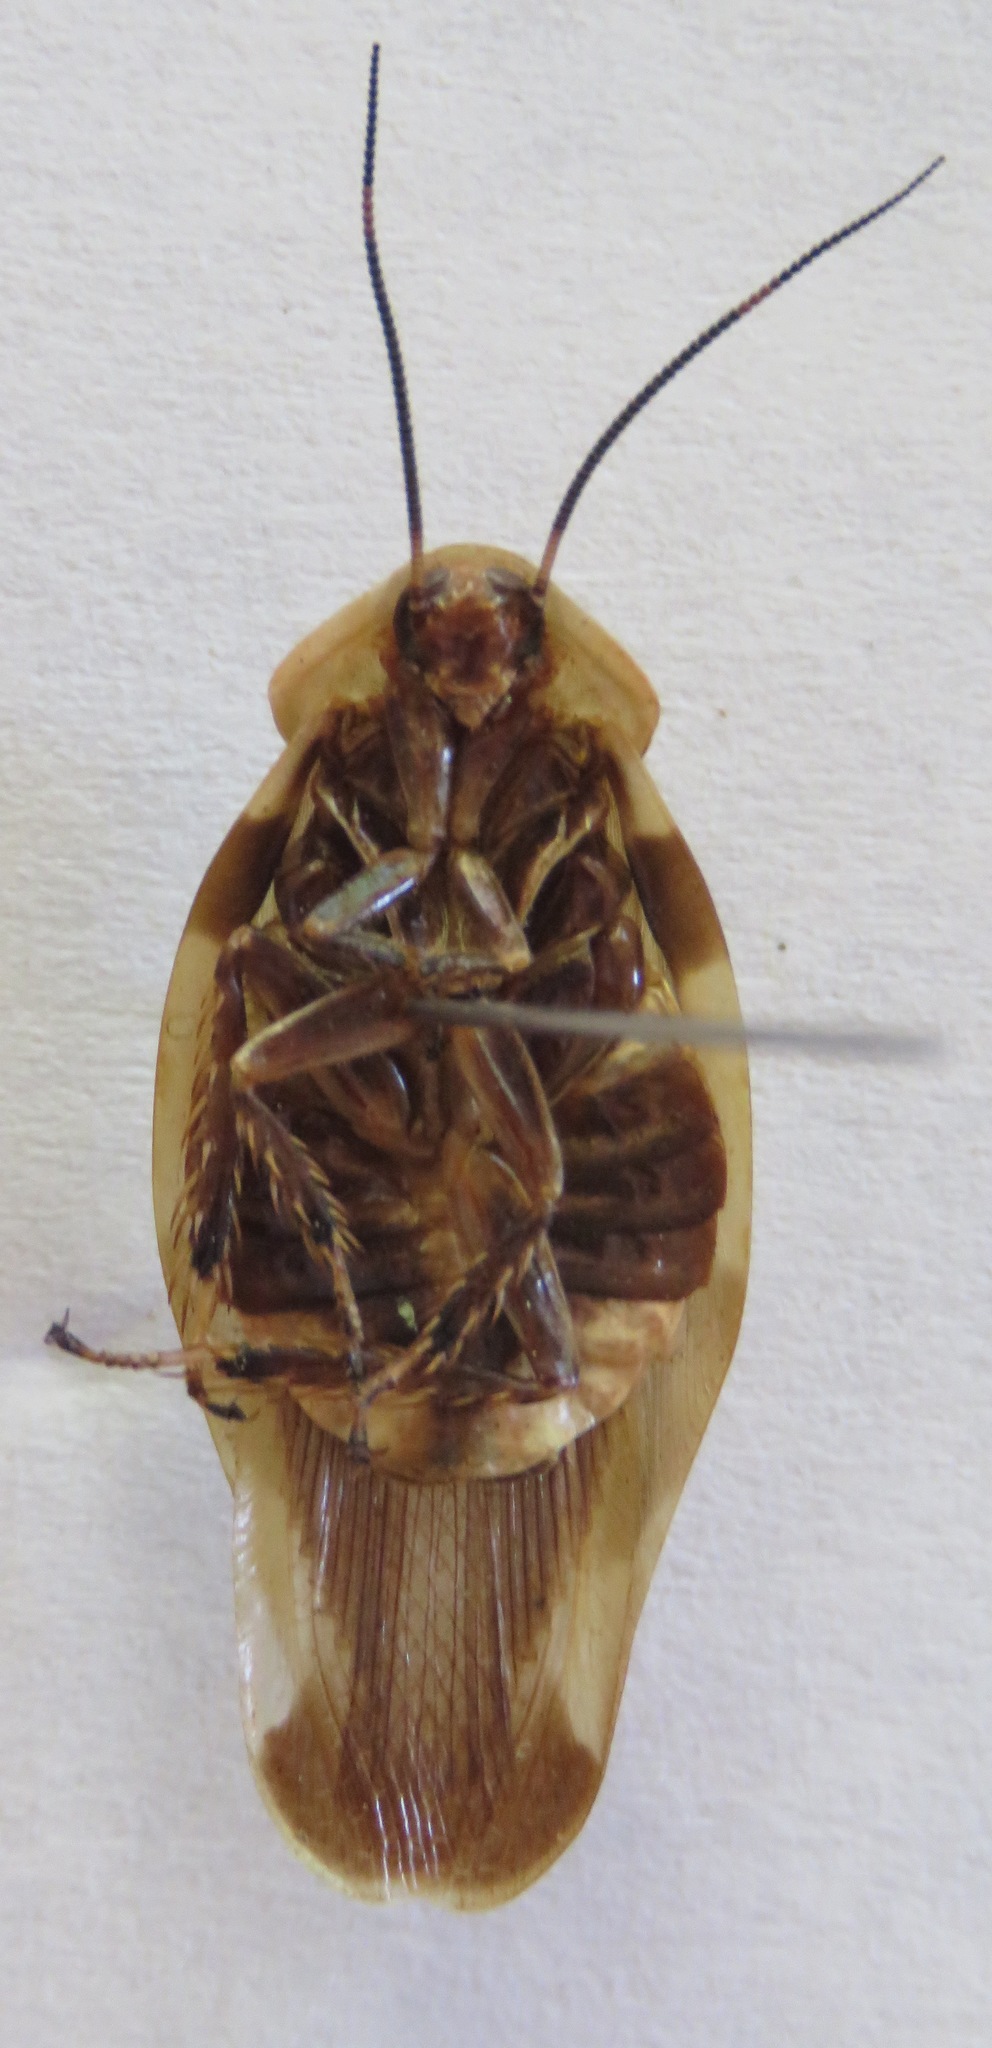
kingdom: Animalia
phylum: Arthropoda
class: Insecta
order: Blattodea
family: Blaberidae
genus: Achroblatta
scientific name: Achroblatta luteola
